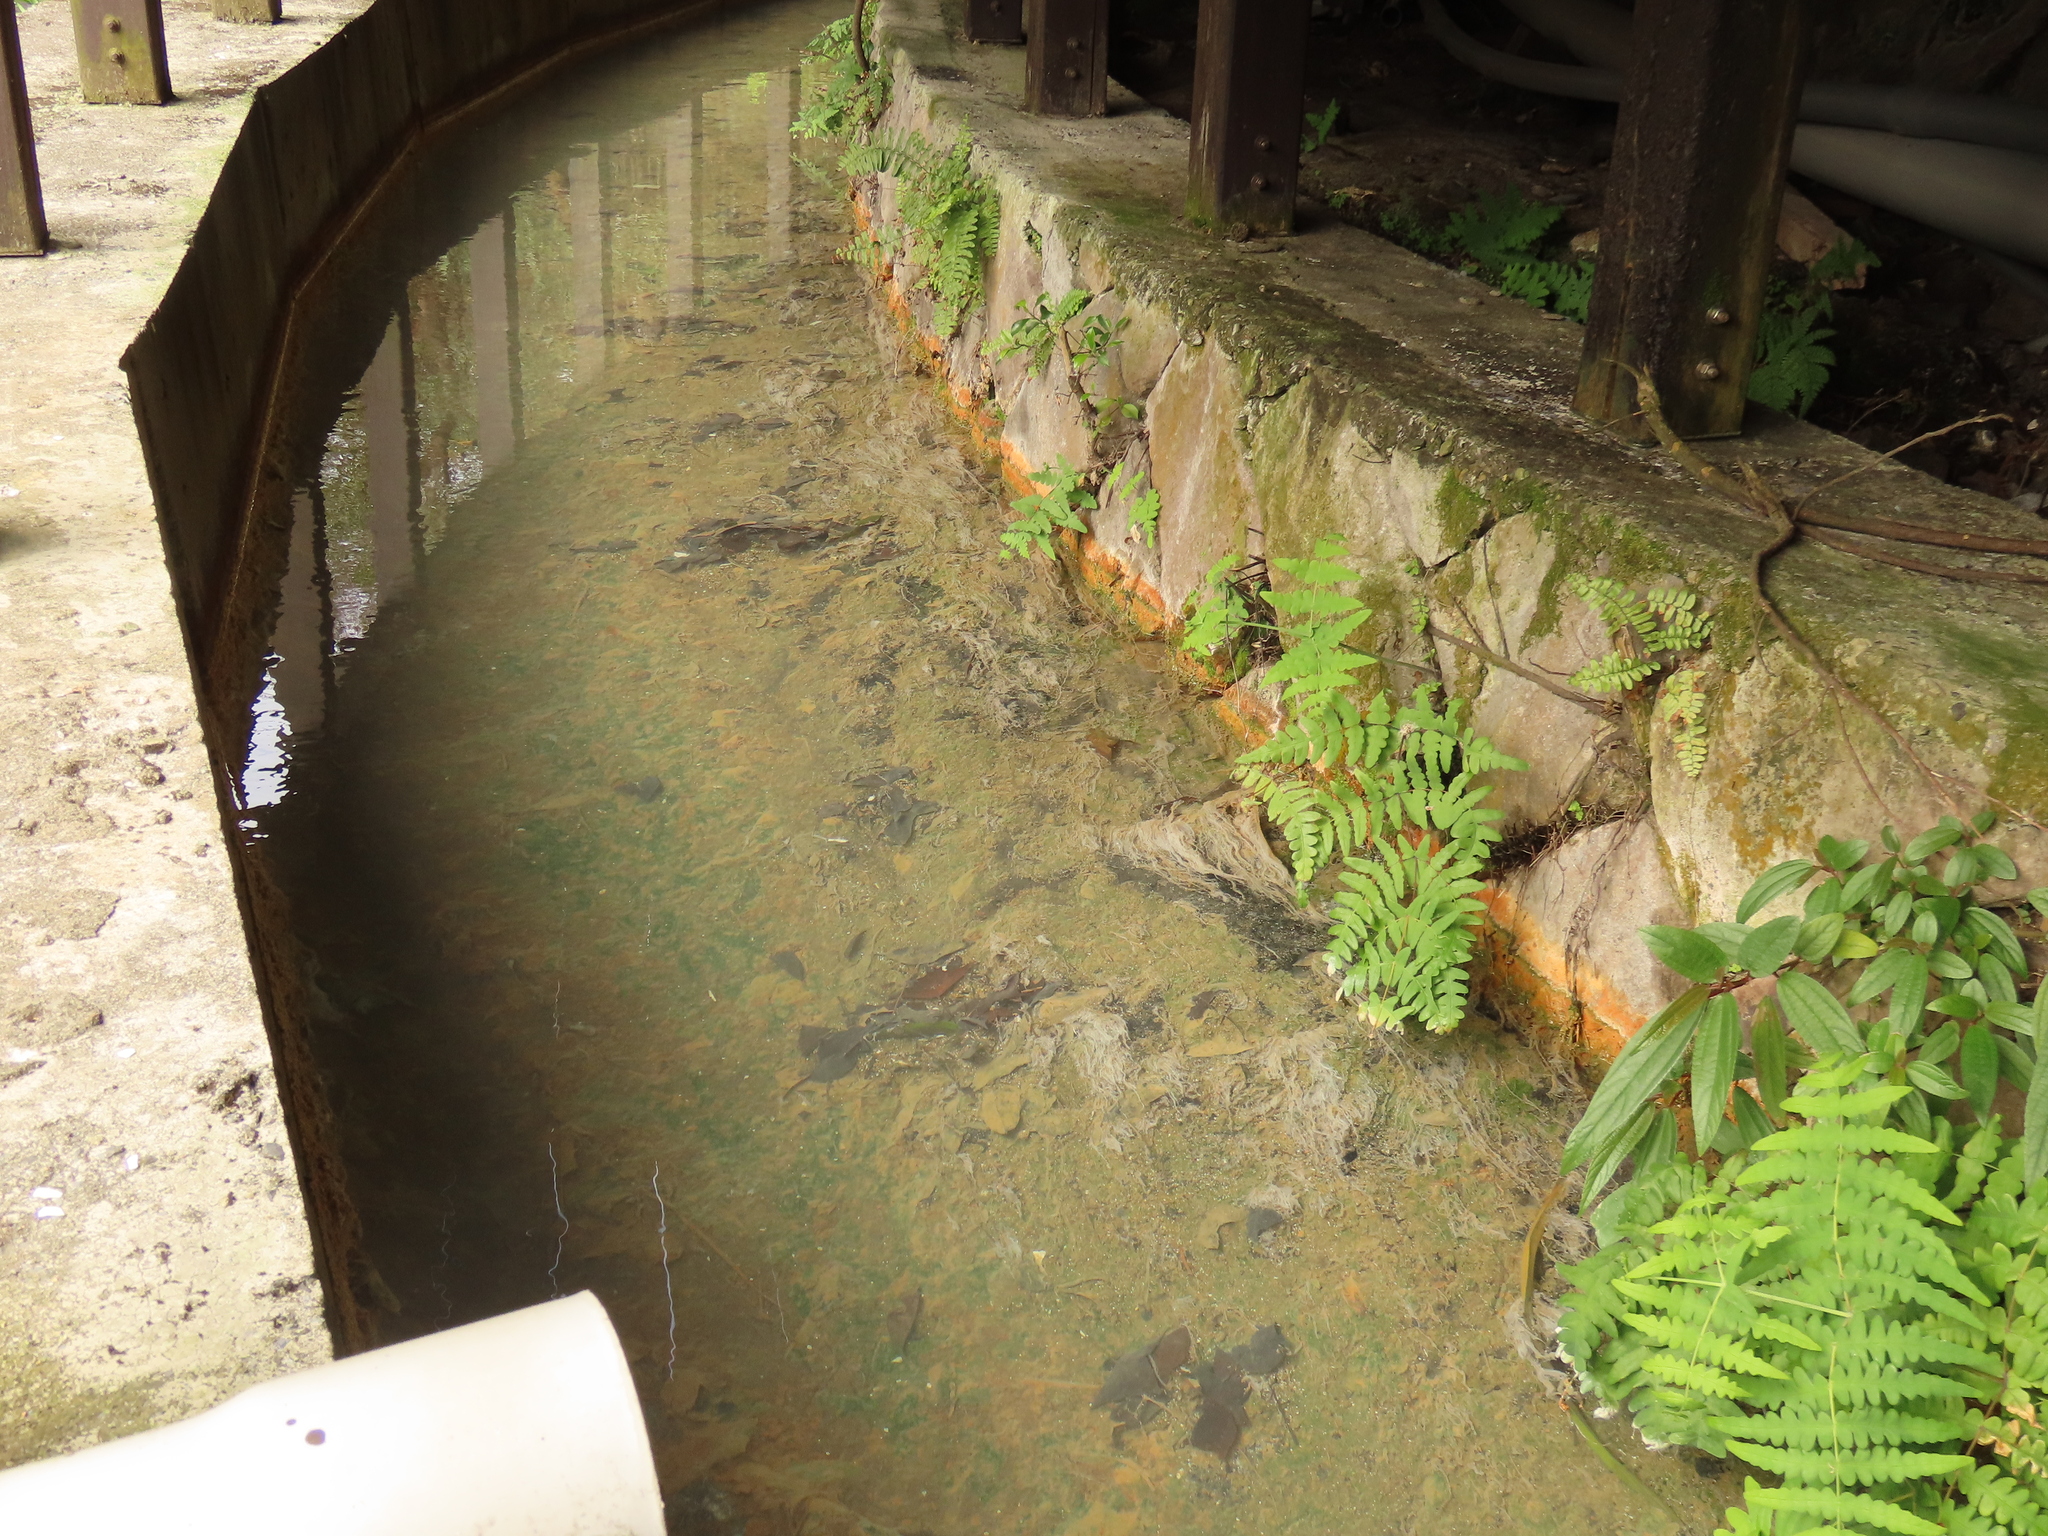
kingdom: Plantae
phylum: Tracheophyta
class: Polypodiopsida
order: Polypodiales
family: Dennstaedtiaceae
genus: Histiopteris
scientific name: Histiopteris incisa
